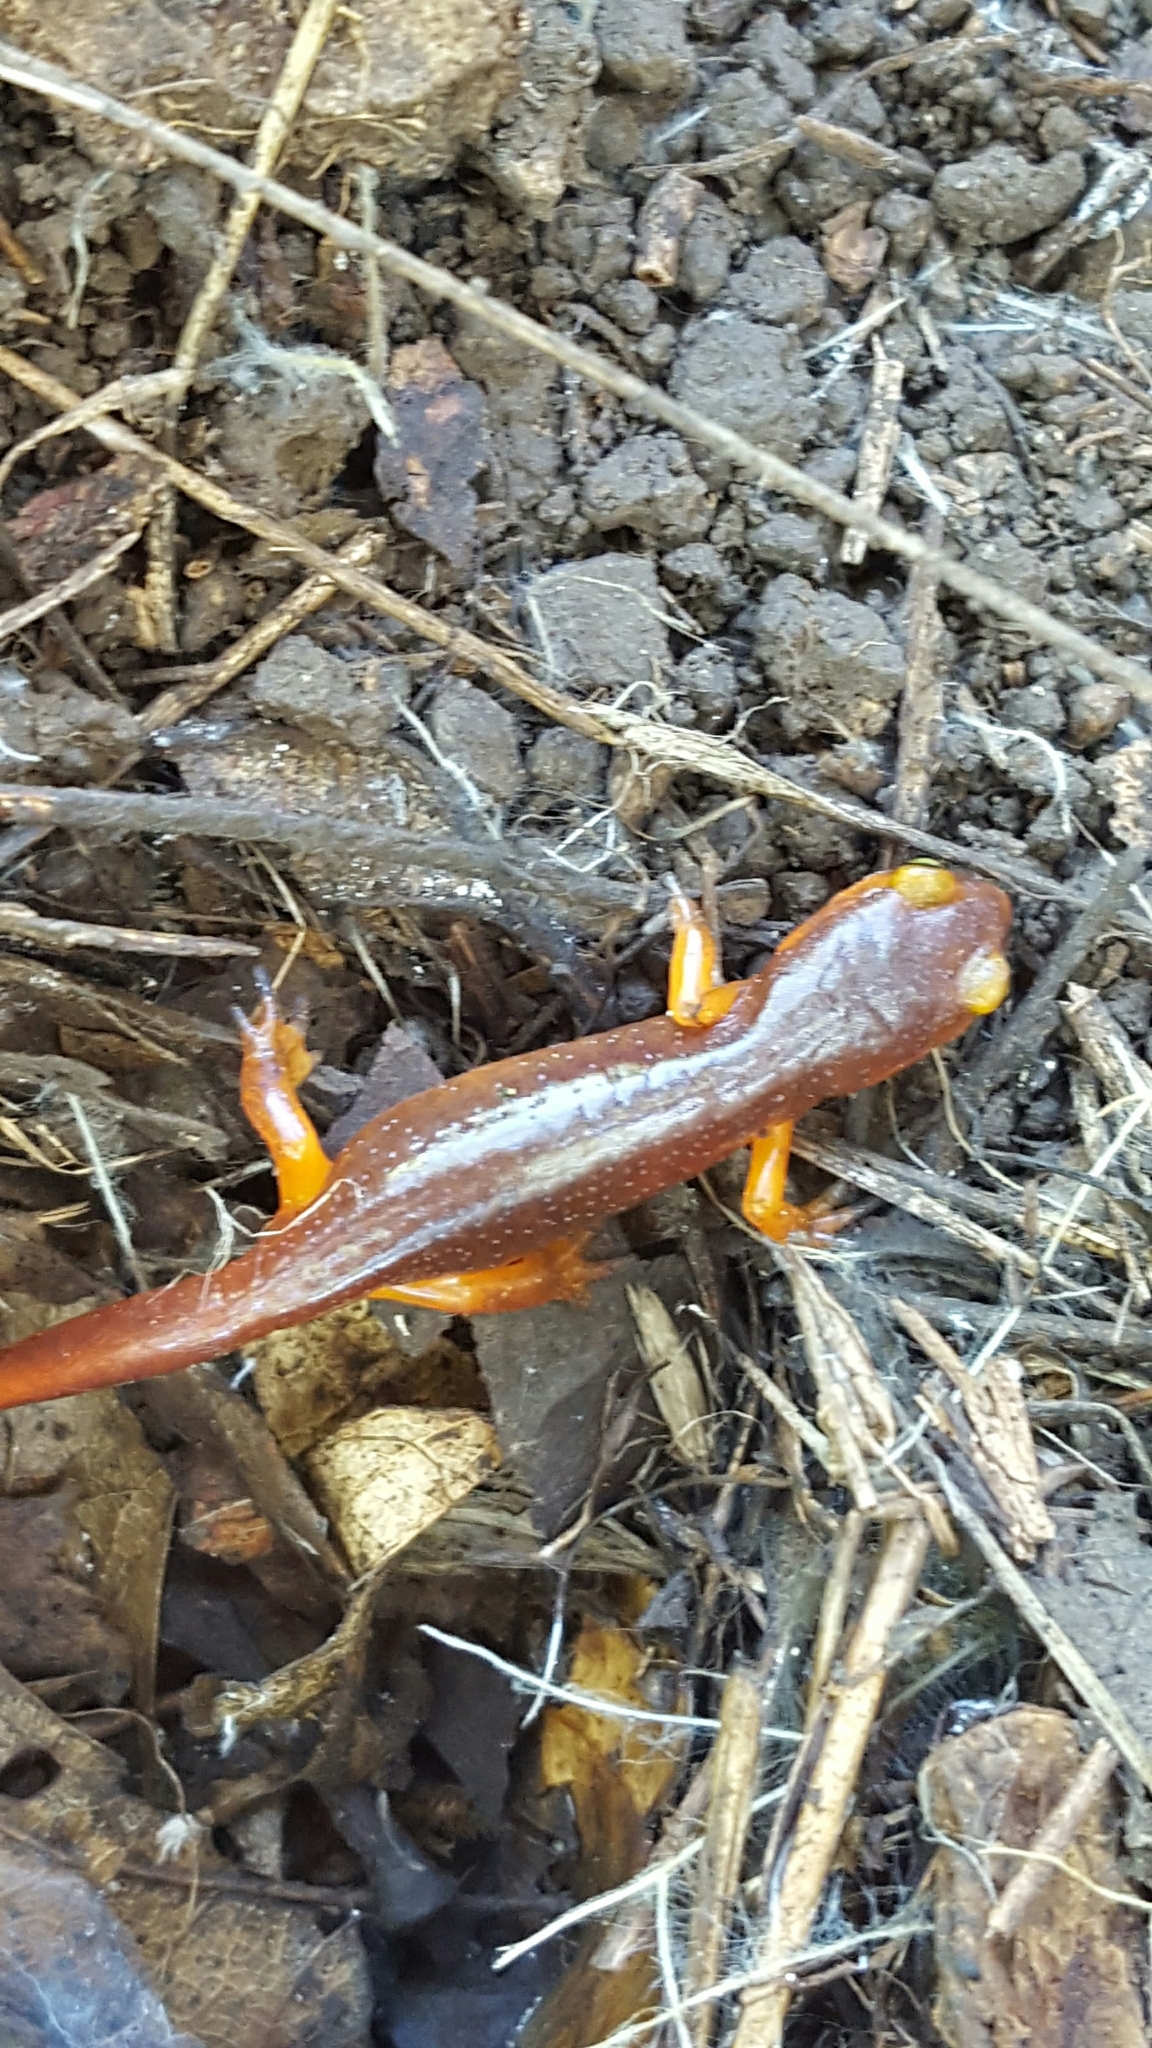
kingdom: Animalia
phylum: Chordata
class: Amphibia
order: Caudata
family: Plethodontidae
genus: Ensatina
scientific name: Ensatina eschscholtzii
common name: Ensatina
